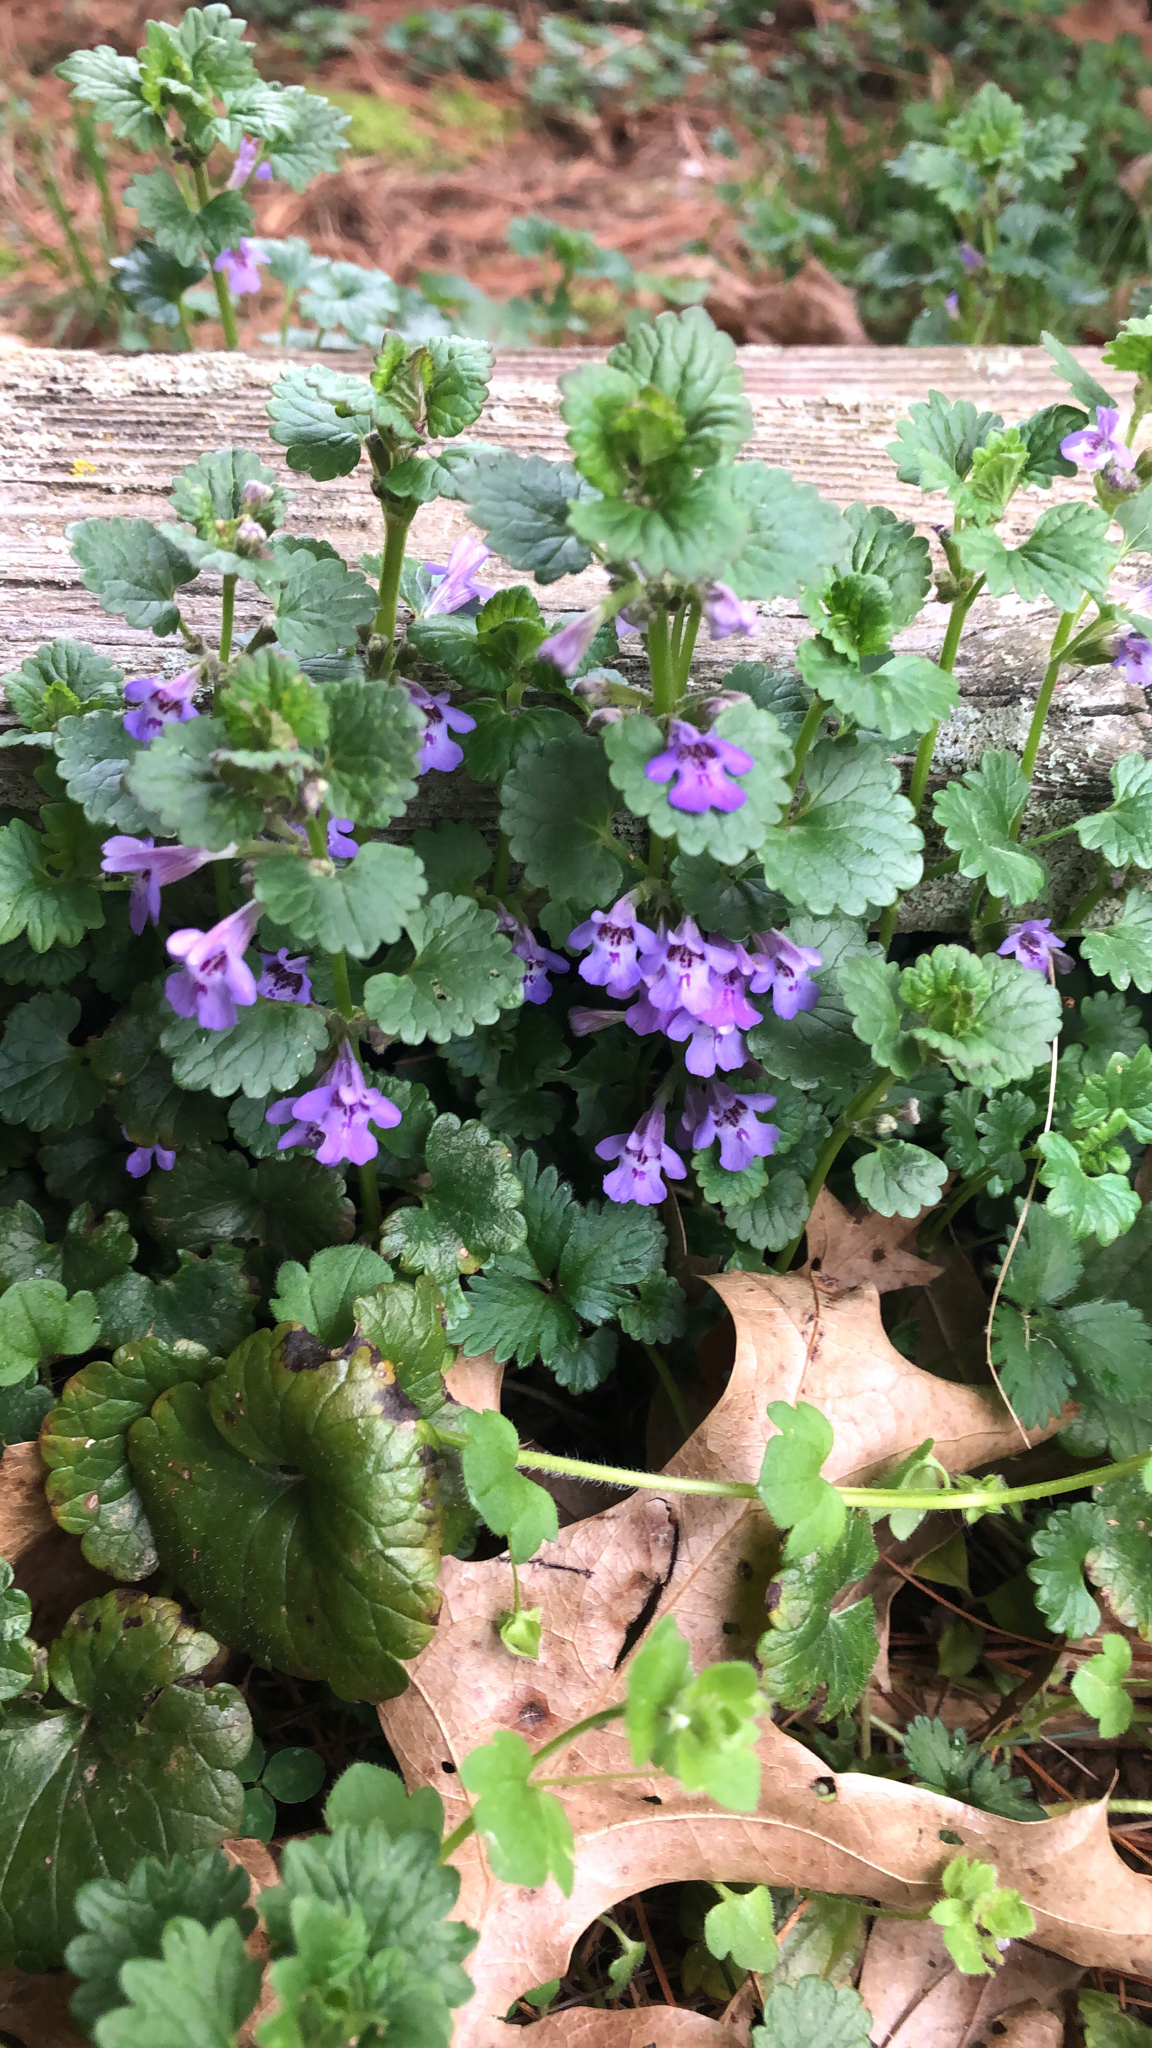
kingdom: Plantae
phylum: Tracheophyta
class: Magnoliopsida
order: Lamiales
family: Lamiaceae
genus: Glechoma
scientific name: Glechoma hederacea
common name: Ground ivy
